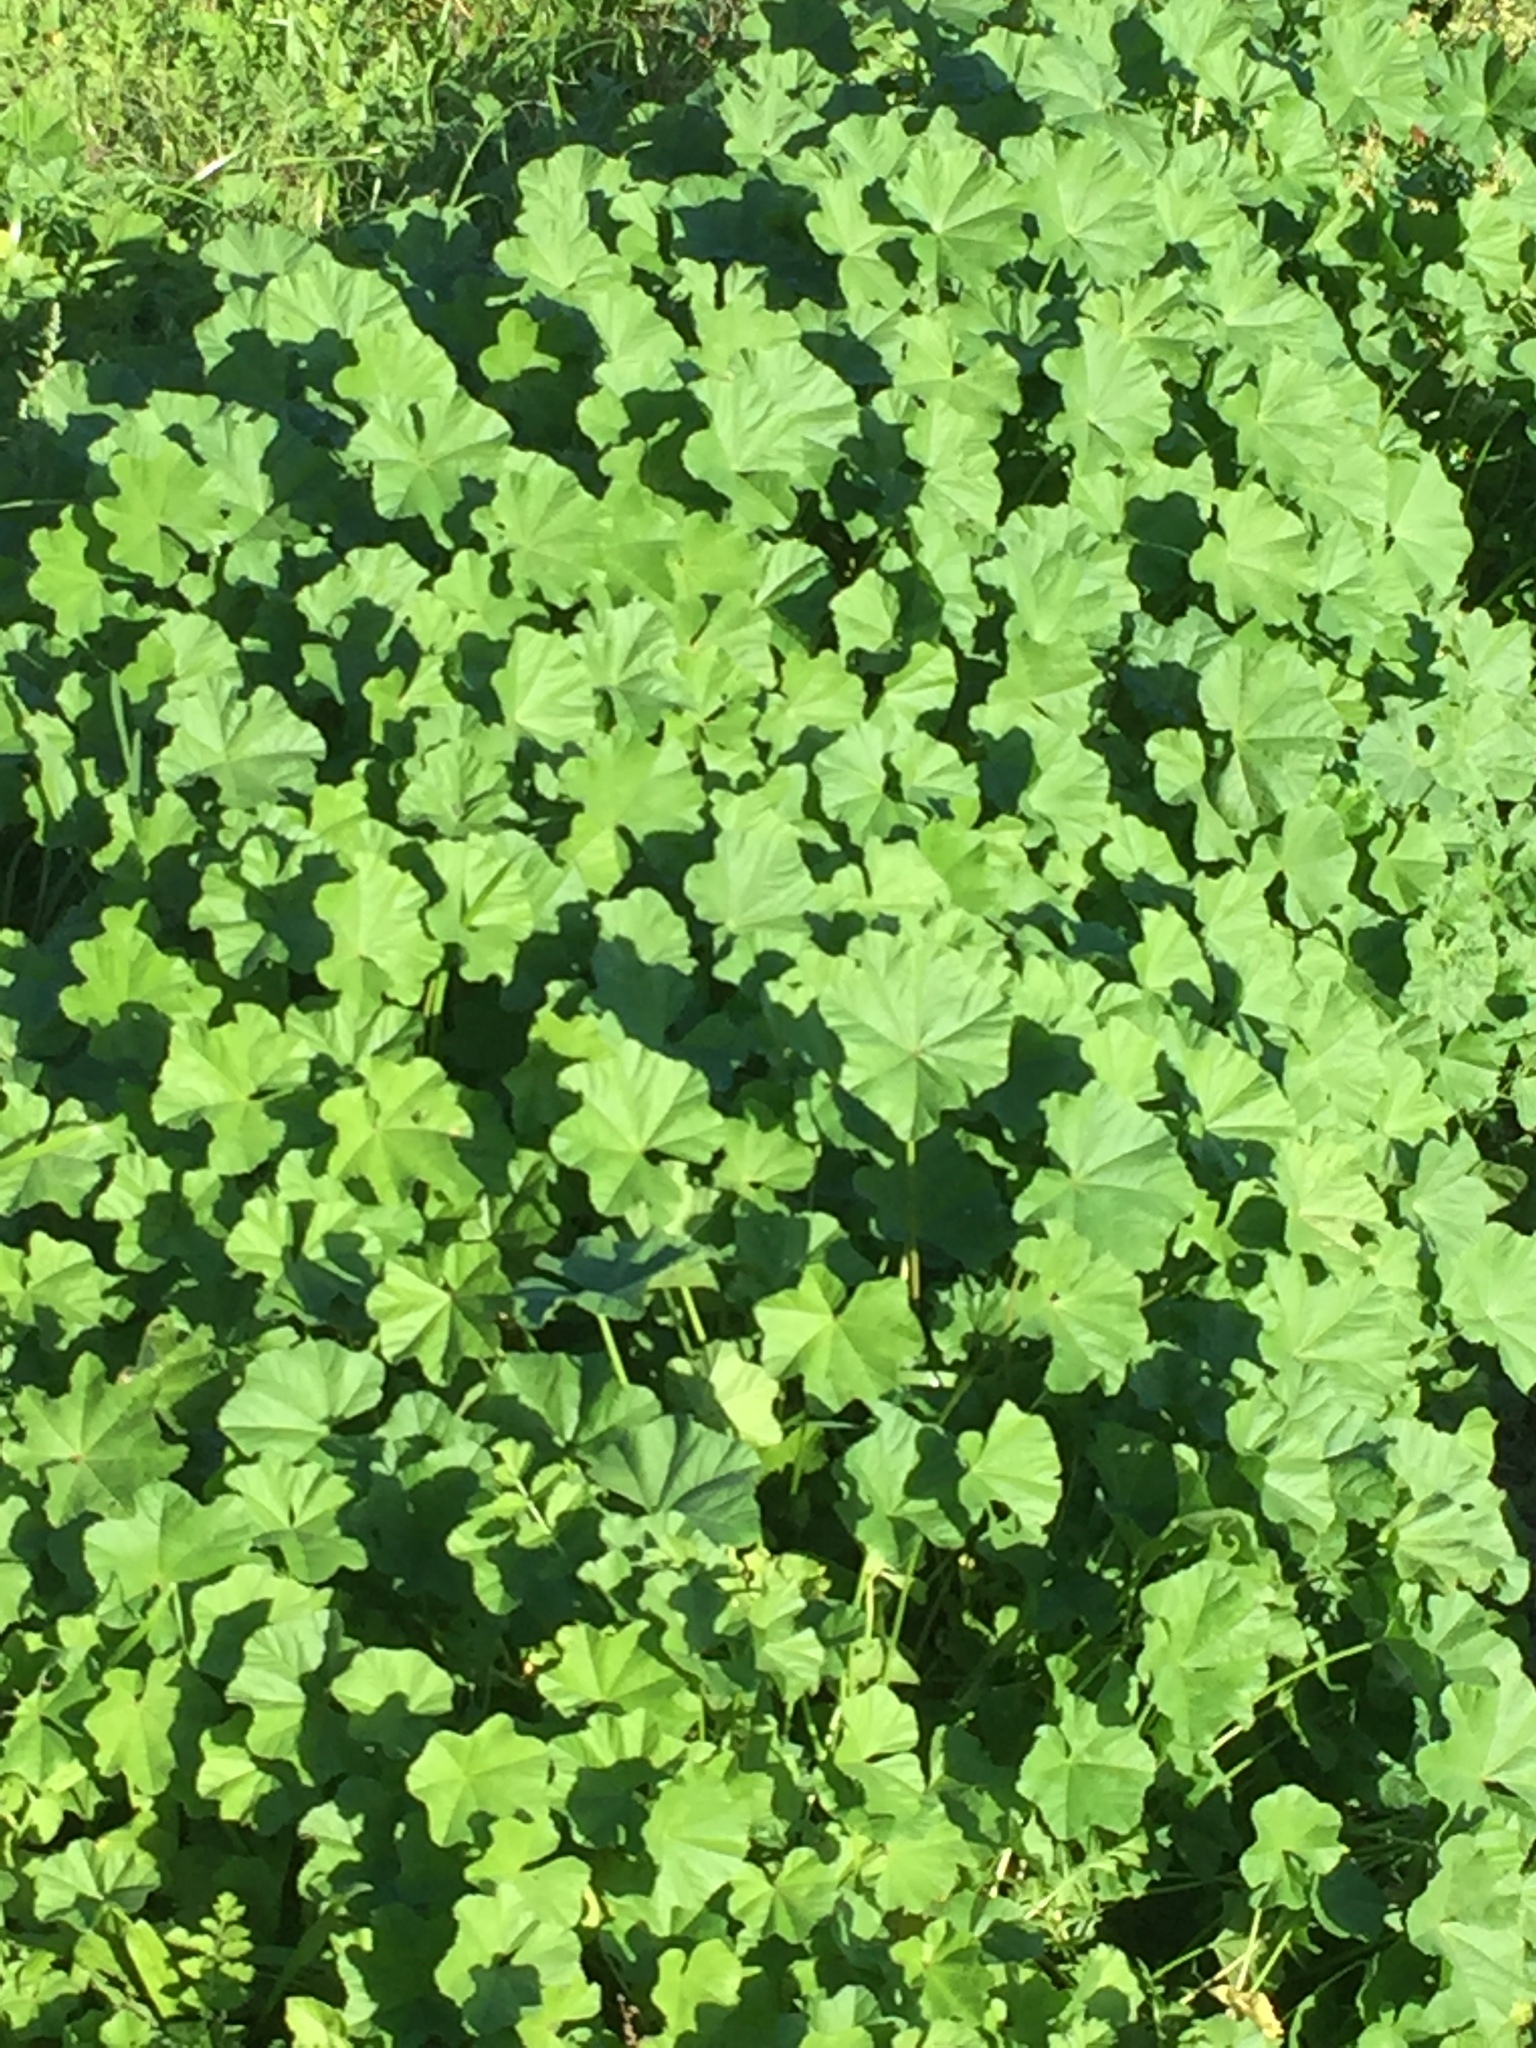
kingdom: Plantae
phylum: Tracheophyta
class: Magnoliopsida
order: Malvales
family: Malvaceae
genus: Malva
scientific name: Malva parviflora
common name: Least mallow
